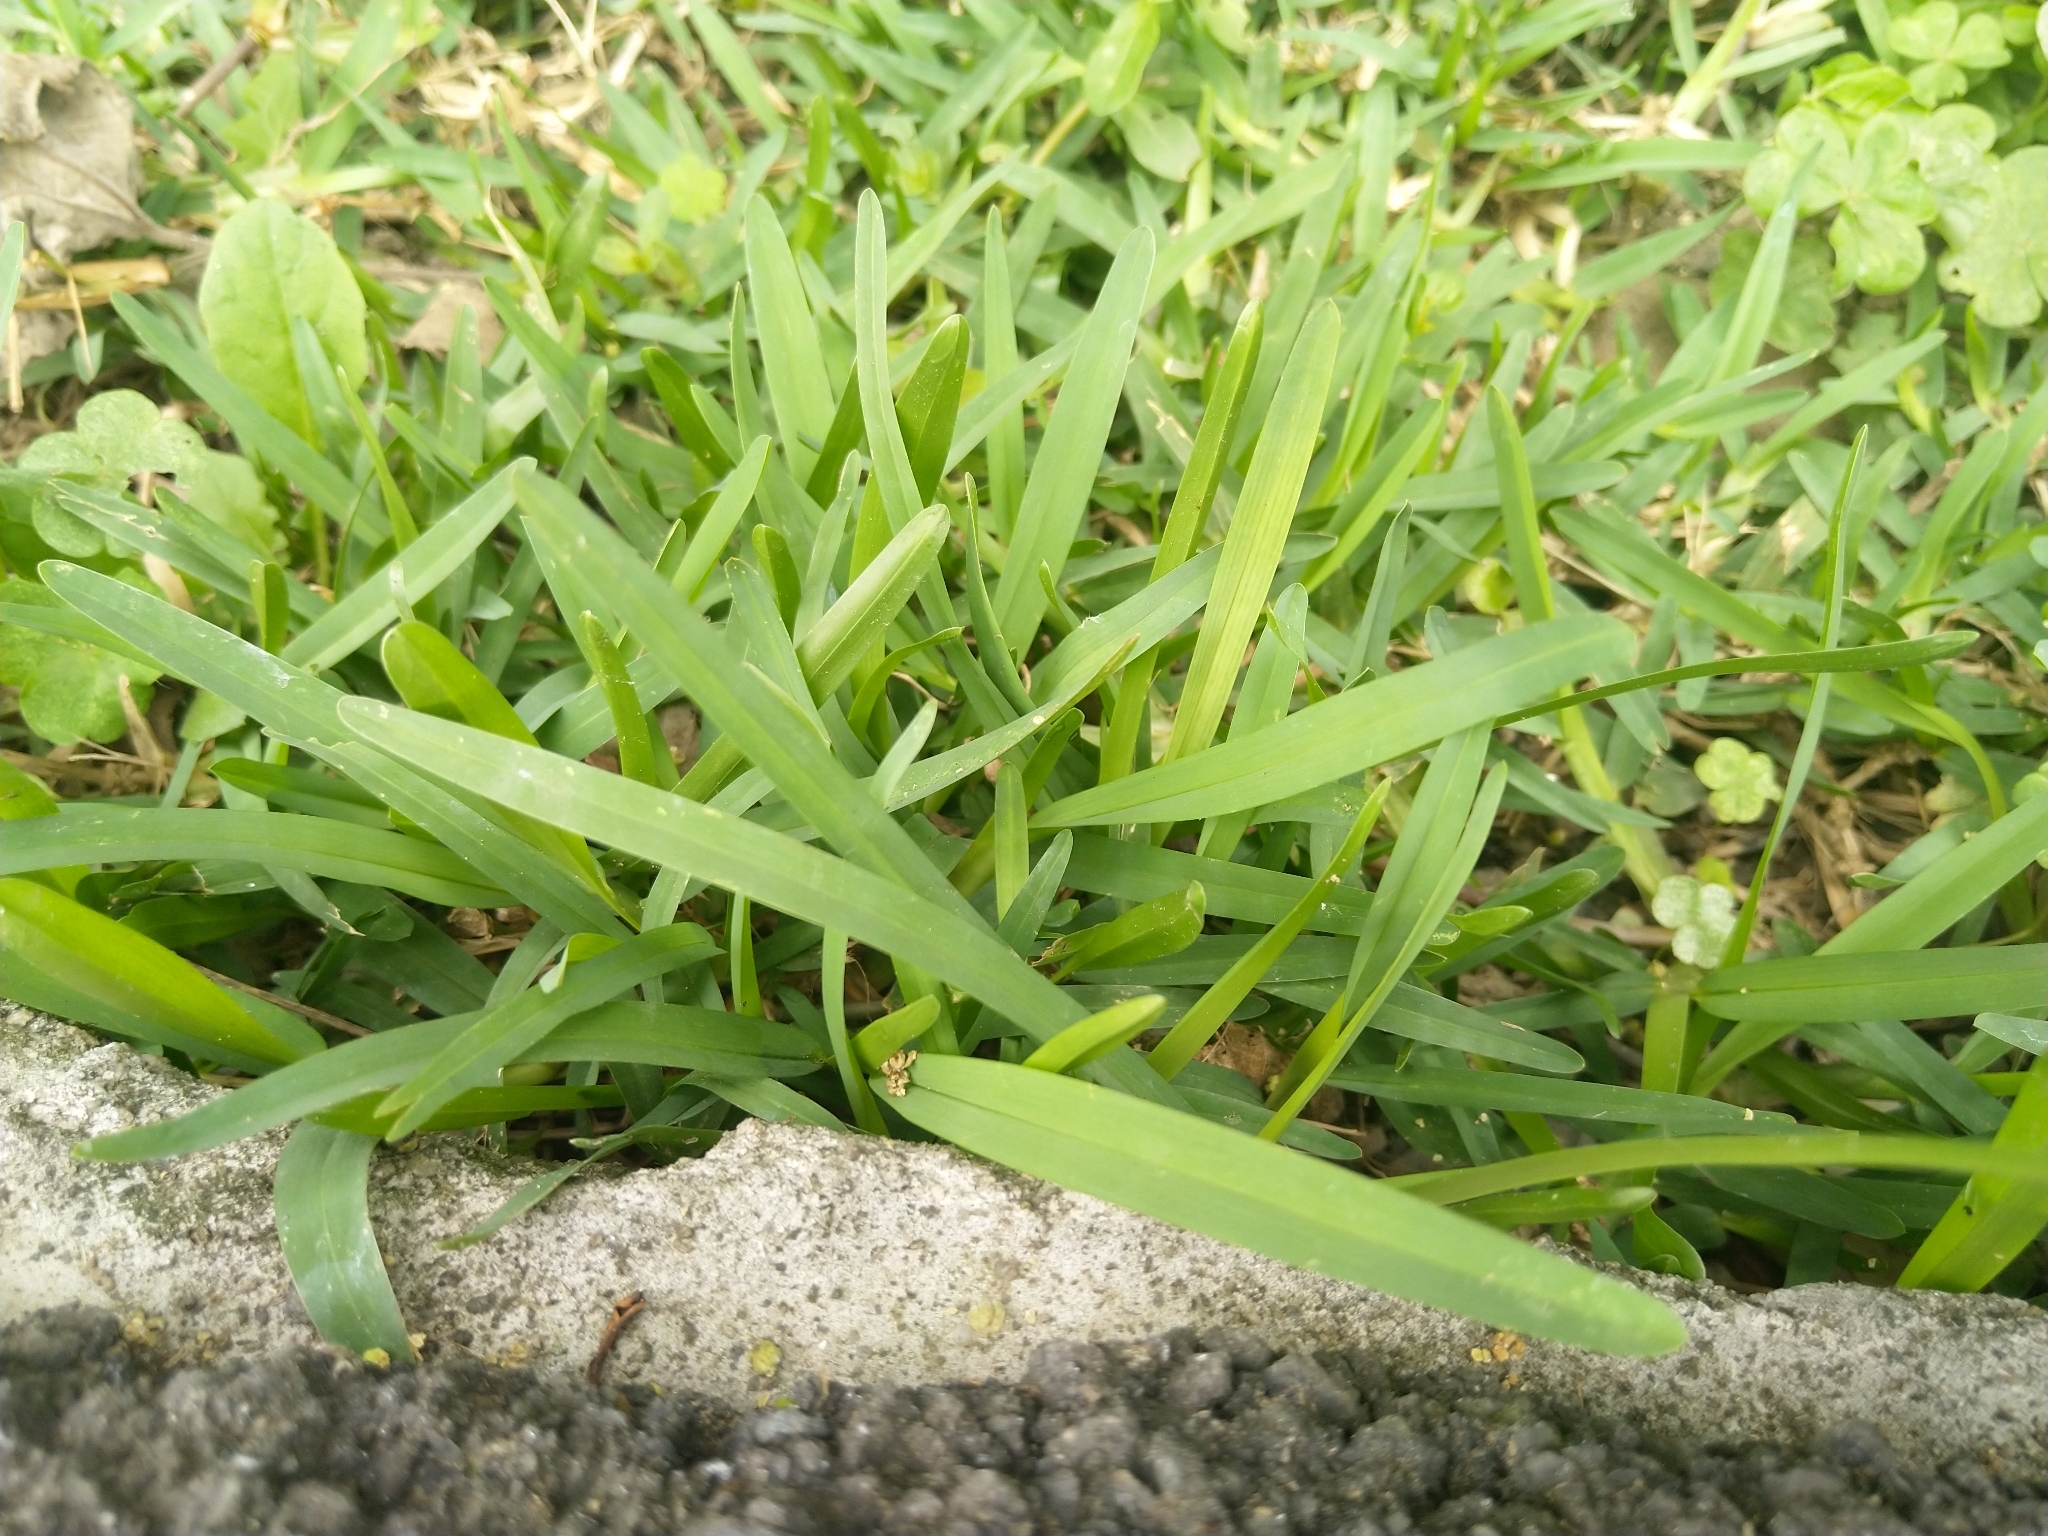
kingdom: Plantae
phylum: Tracheophyta
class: Liliopsida
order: Poales
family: Poaceae
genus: Stenotaphrum
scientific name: Stenotaphrum secundatum
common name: St. augustine grass
